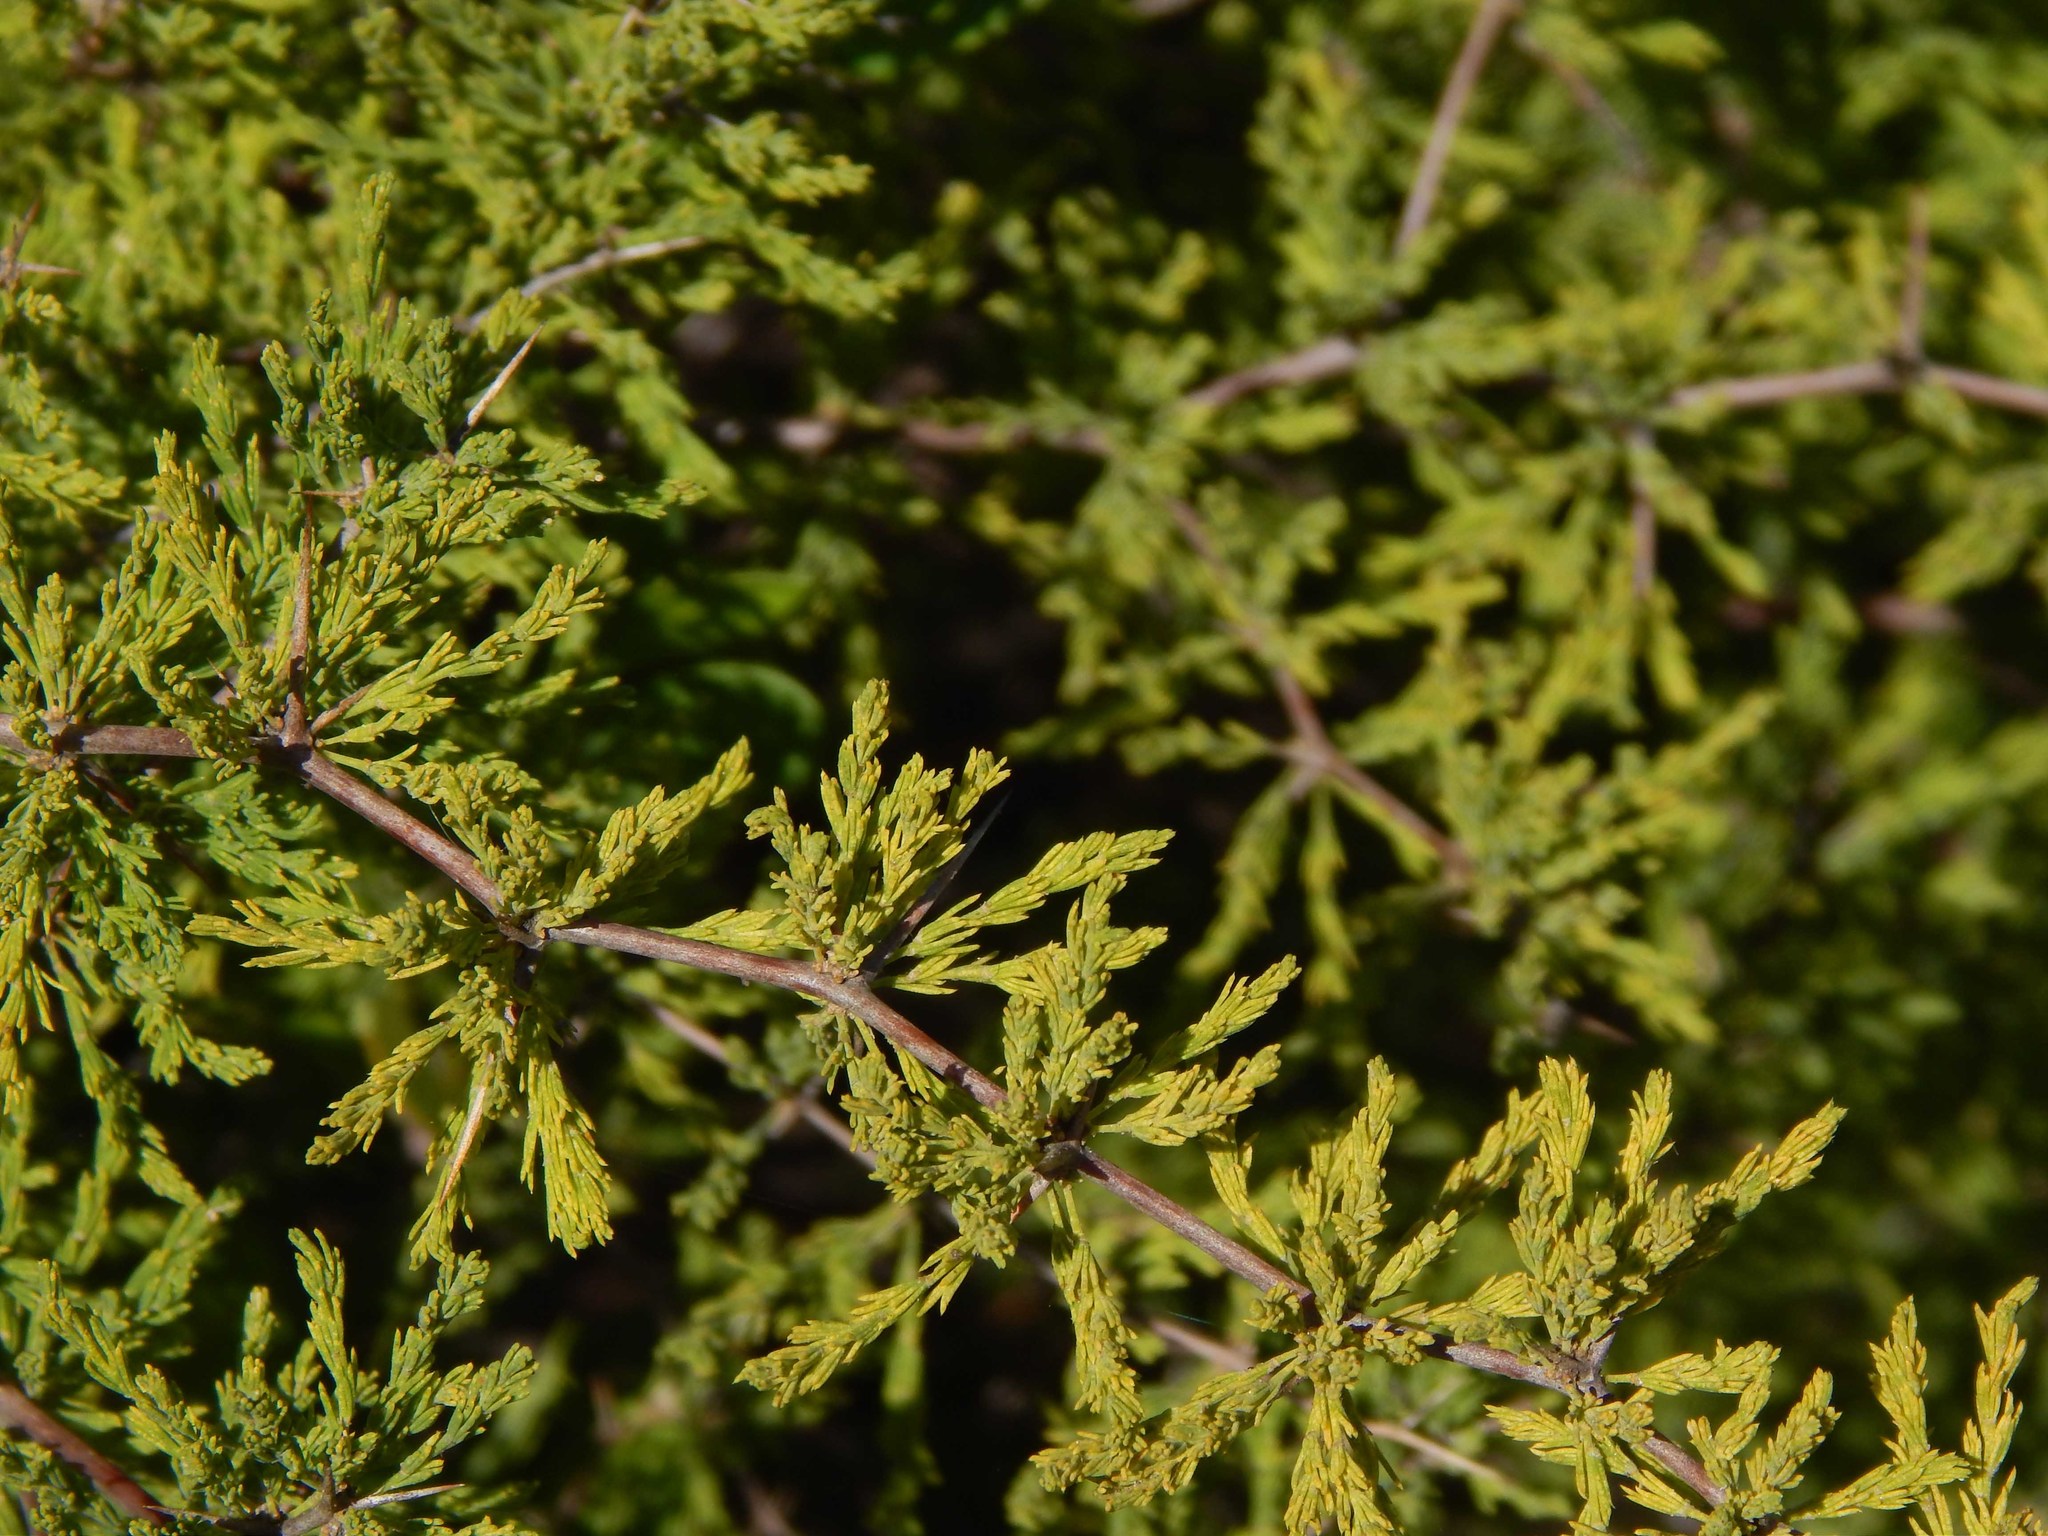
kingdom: Plantae
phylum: Tracheophyta
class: Liliopsida
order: Asparagales
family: Asparagaceae
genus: Asparagus
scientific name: Asparagus capensis
